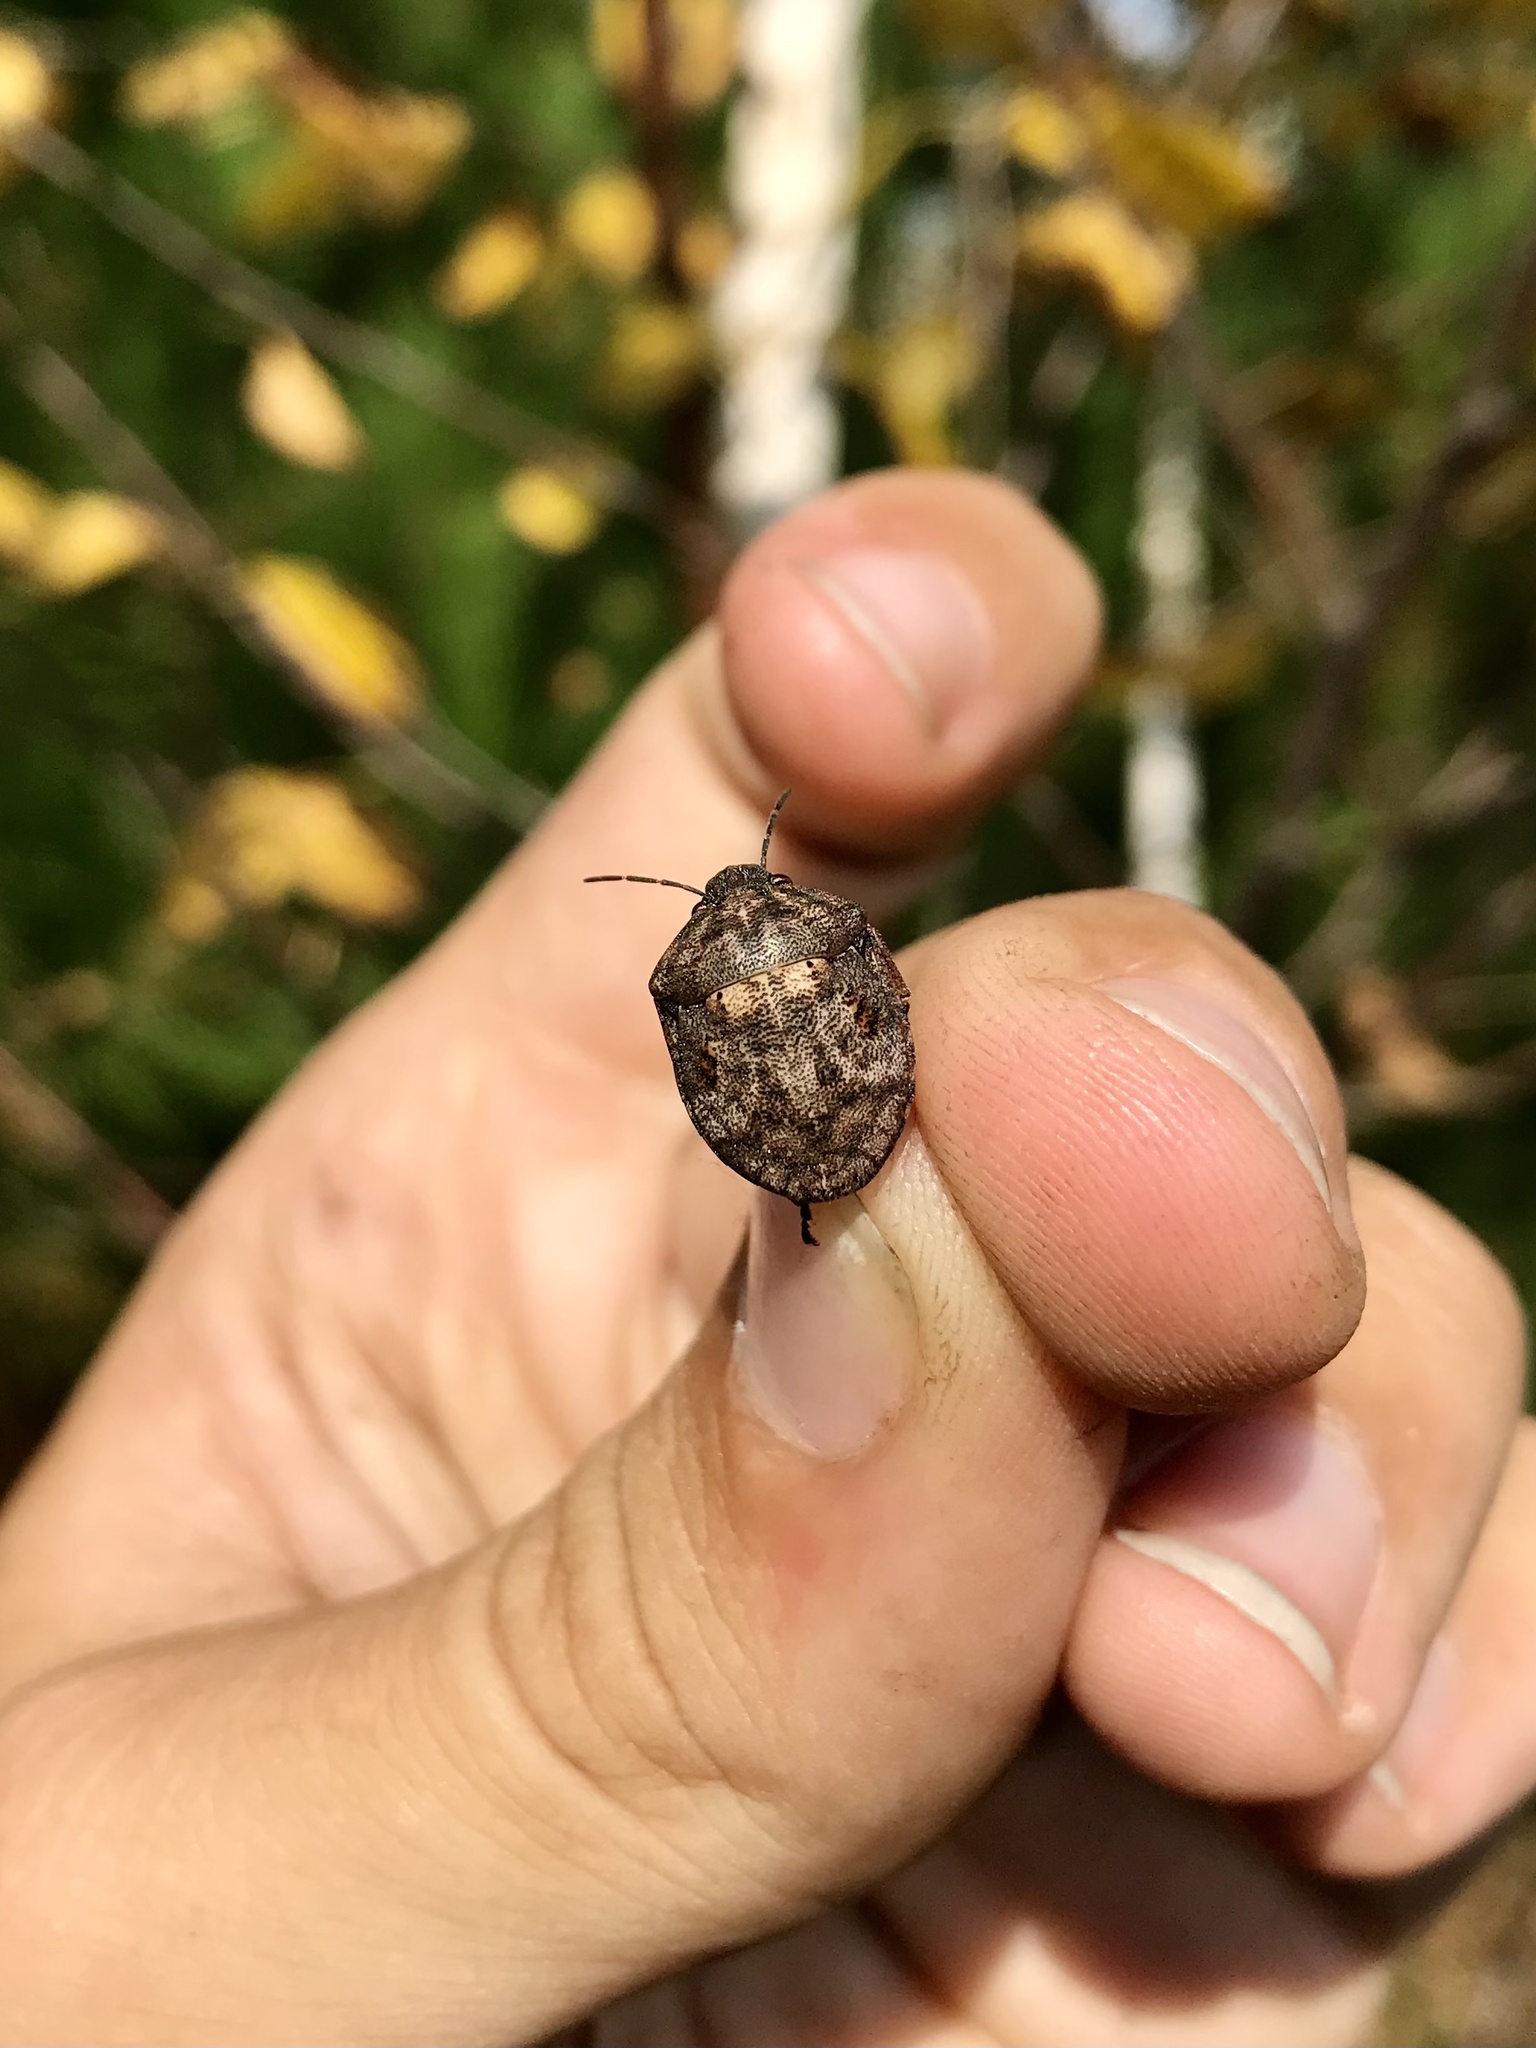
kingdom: Animalia
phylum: Arthropoda
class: Insecta
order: Hemiptera
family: Scutelleridae
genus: Tetyra
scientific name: Tetyra bipunctata
